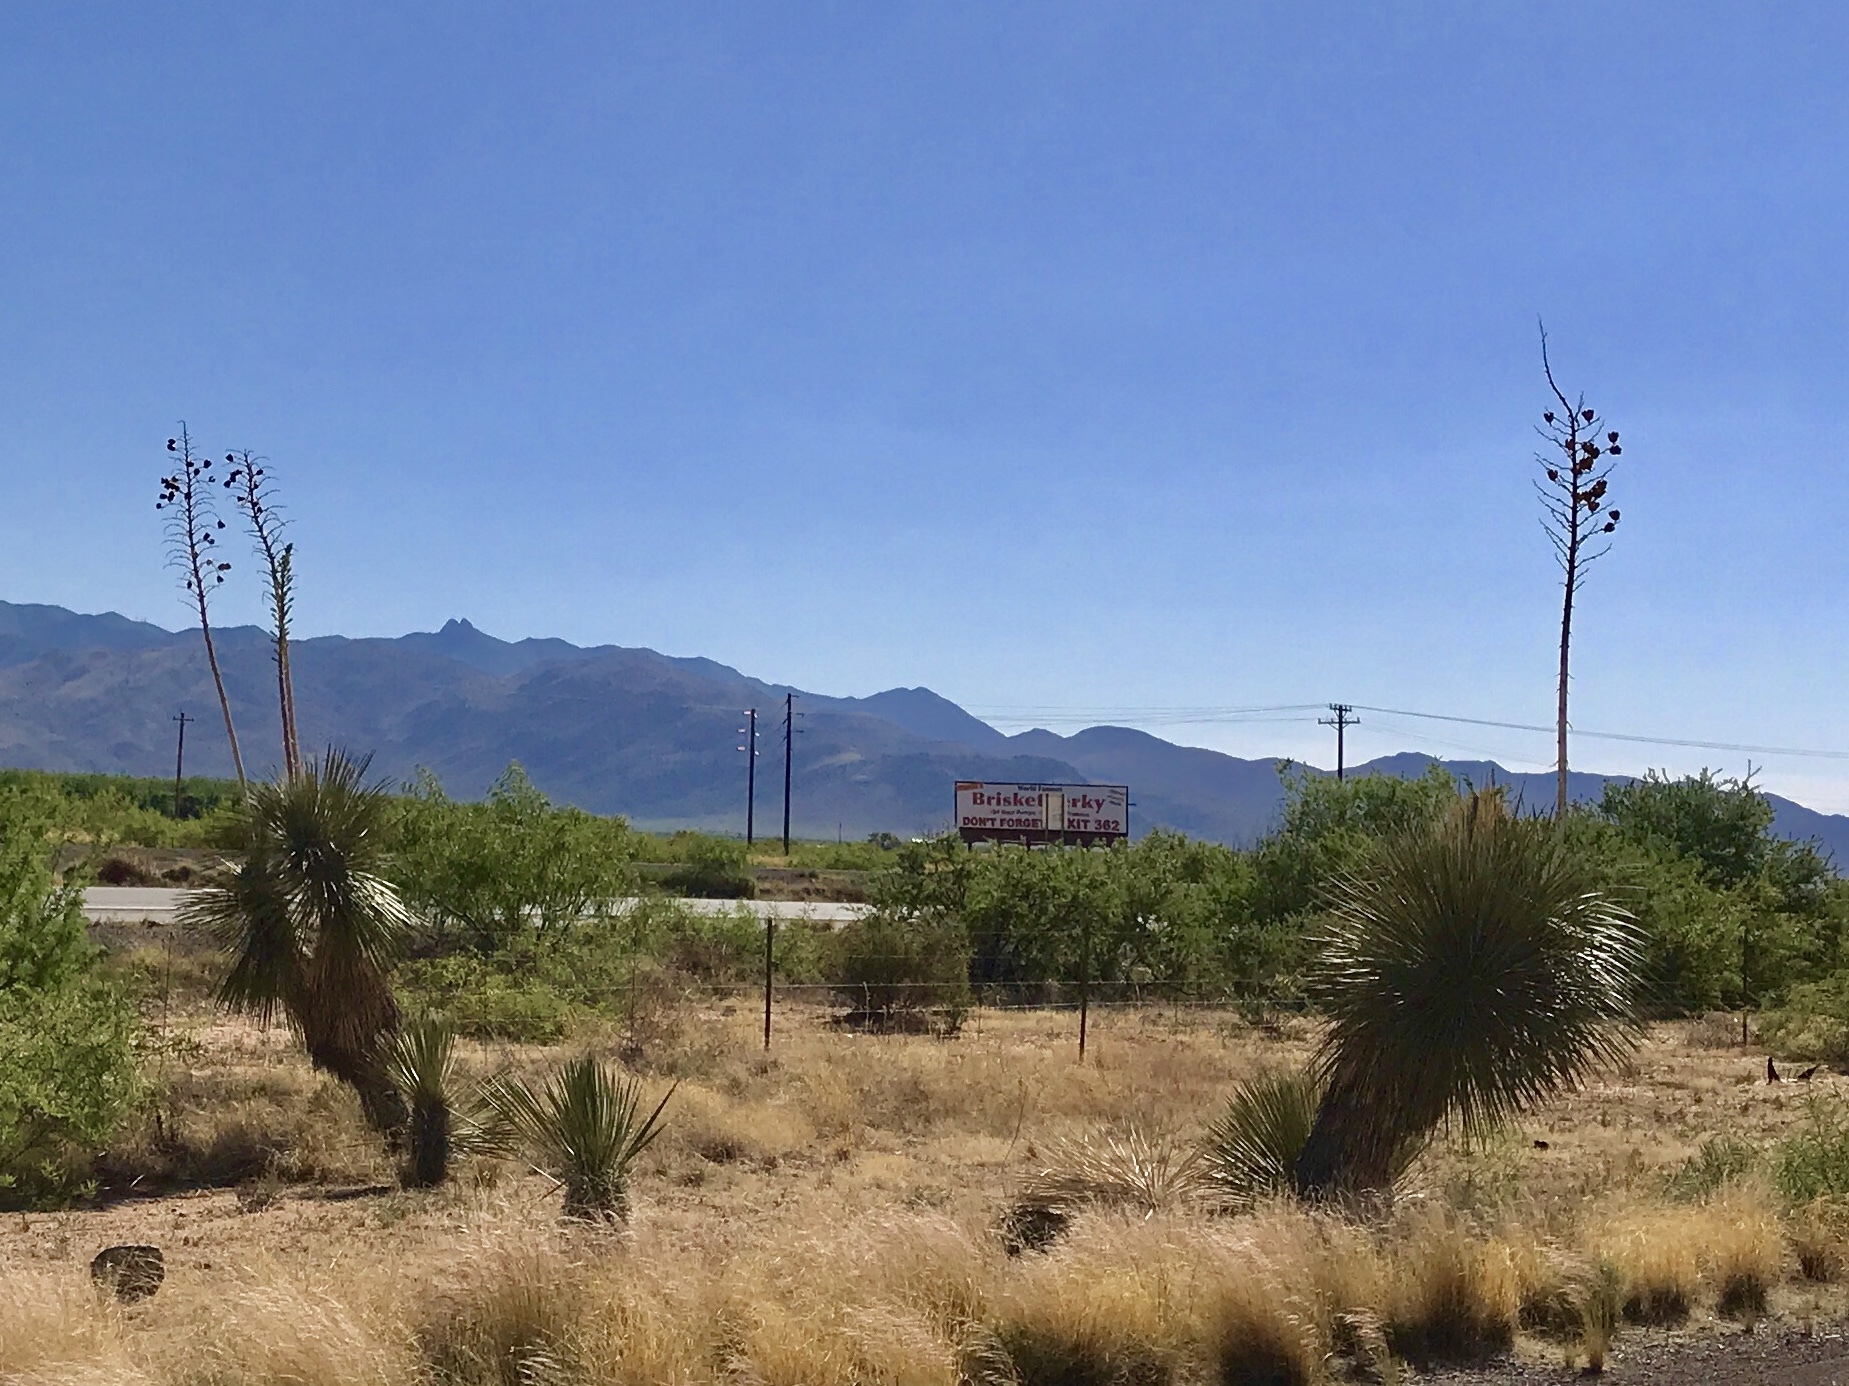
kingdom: Plantae
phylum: Tracheophyta
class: Liliopsida
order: Asparagales
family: Asparagaceae
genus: Yucca
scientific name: Yucca elata
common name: Palmella
